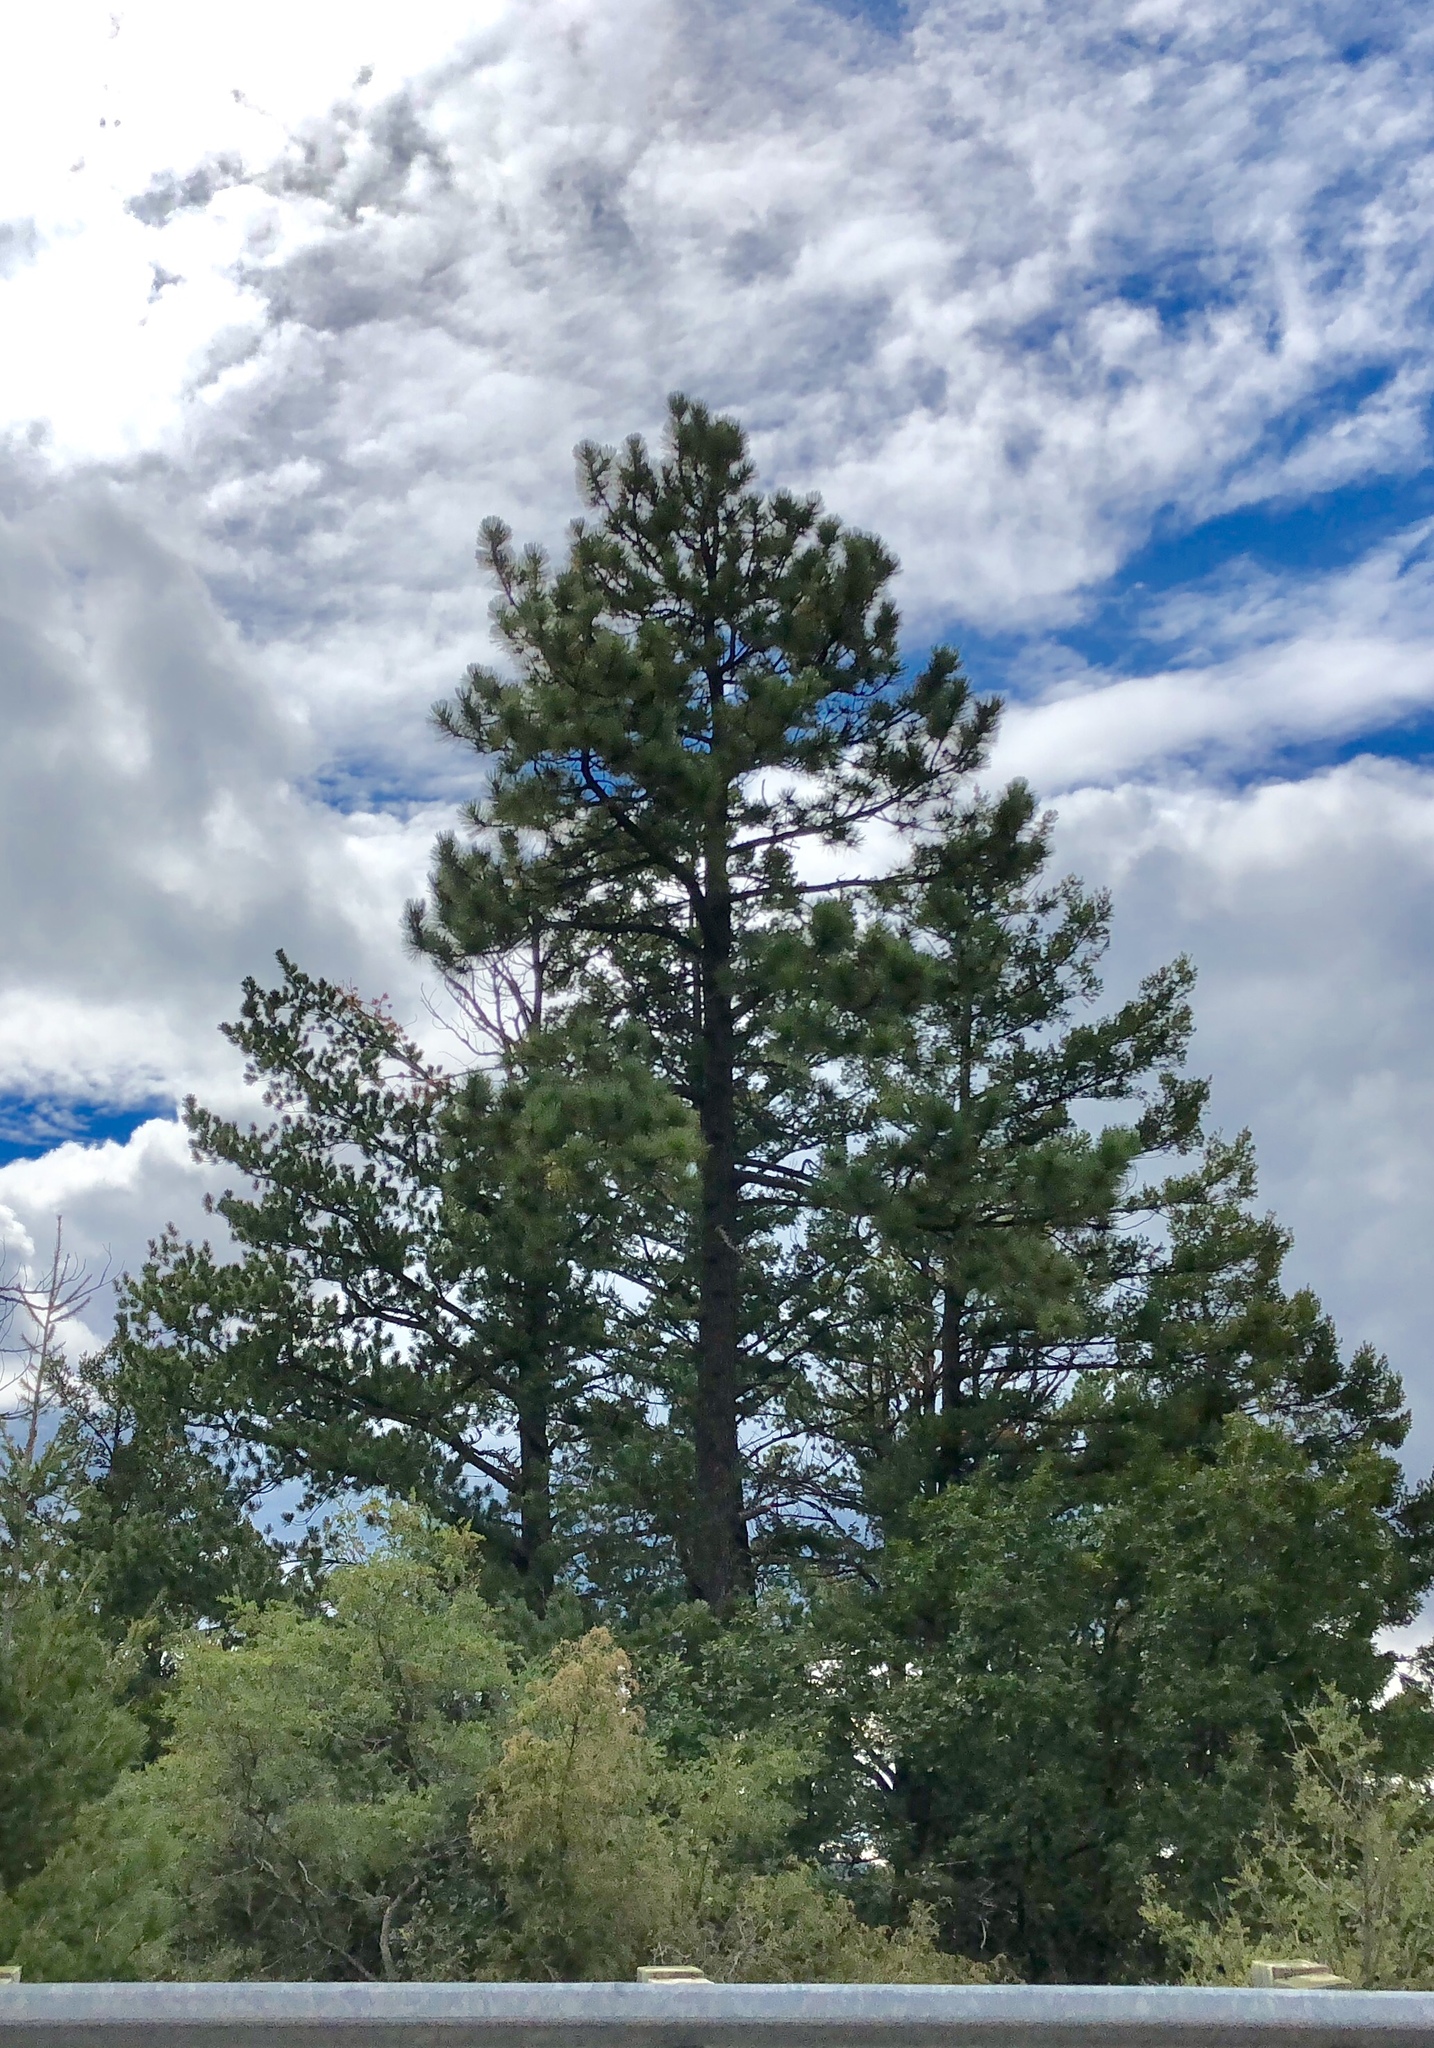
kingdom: Plantae
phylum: Tracheophyta
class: Pinopsida
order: Pinales
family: Pinaceae
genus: Pinus
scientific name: Pinus ponderosa
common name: Western yellow-pine
